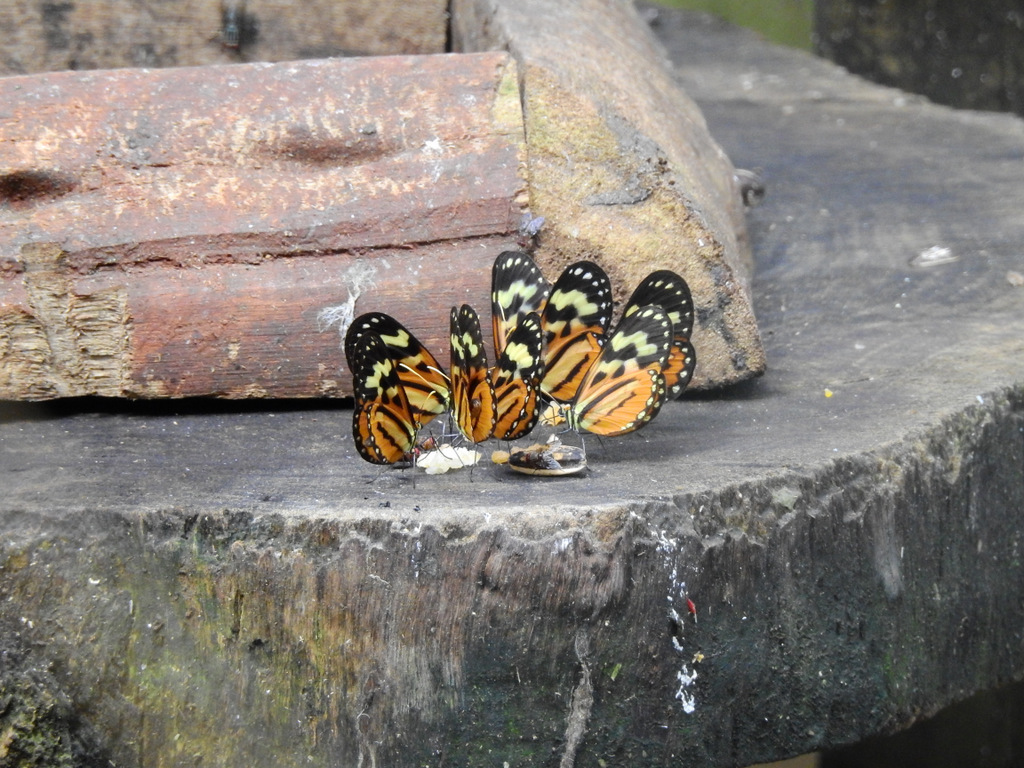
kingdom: Animalia
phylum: Arthropoda
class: Insecta
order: Lepidoptera
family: Nymphalidae
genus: Hypothyris
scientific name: Hypothyris euclea
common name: Euclea tigerwing
